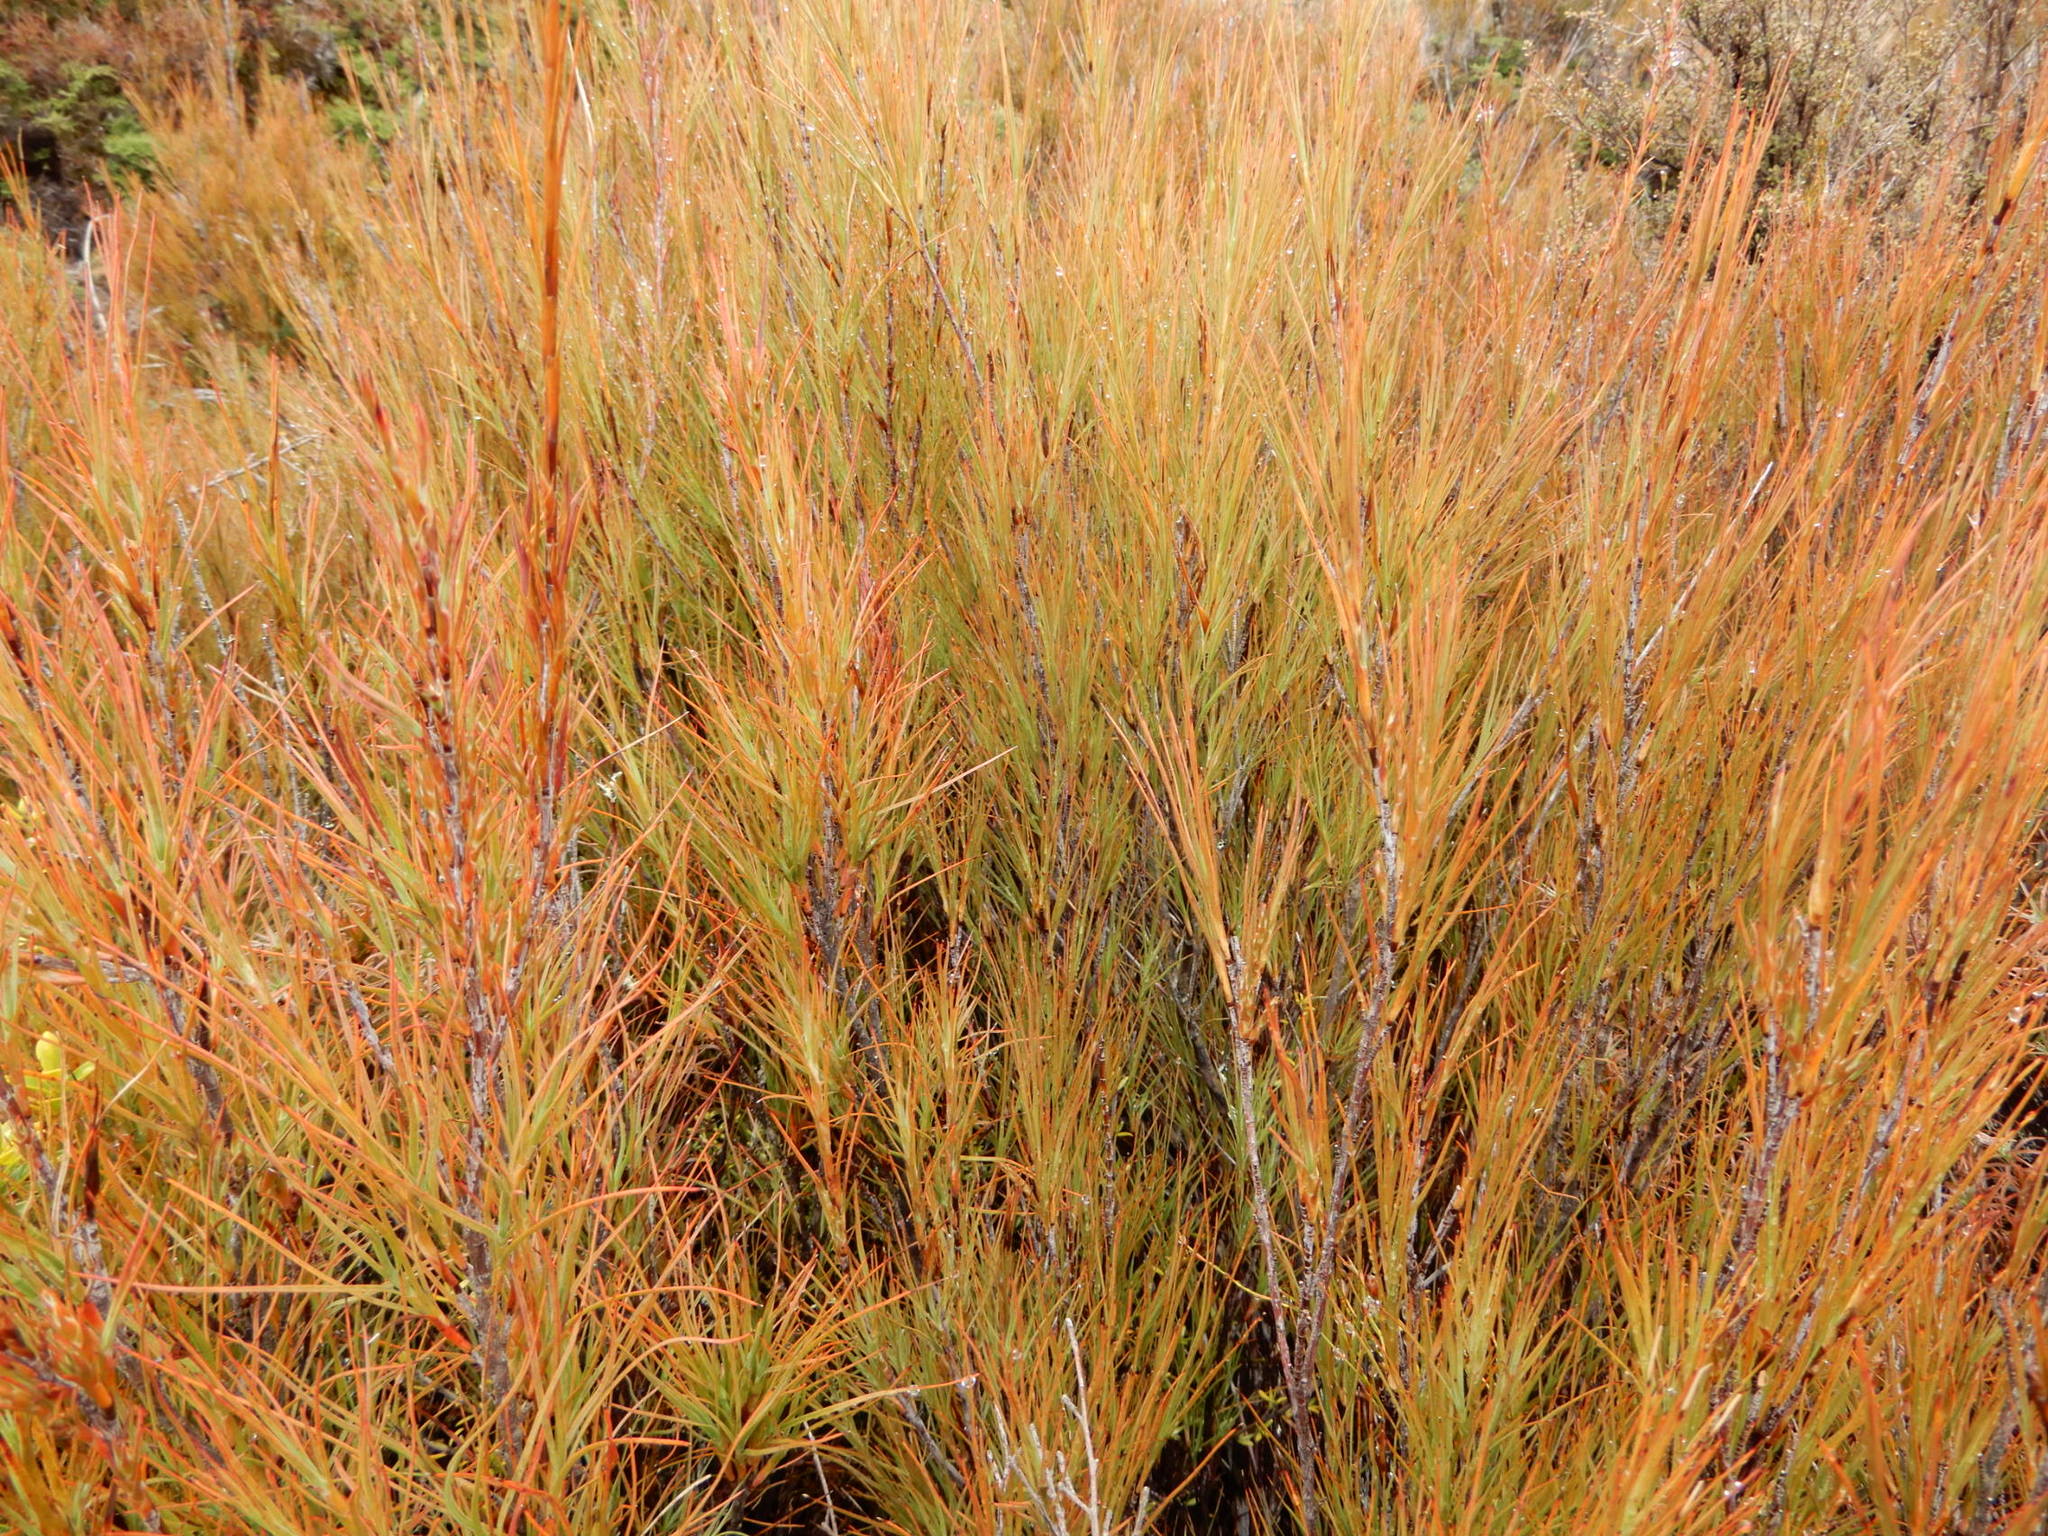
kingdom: Plantae
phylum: Tracheophyta
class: Magnoliopsida
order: Ericales
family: Ericaceae
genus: Dracophyllum
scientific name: Dracophyllum filifolium
